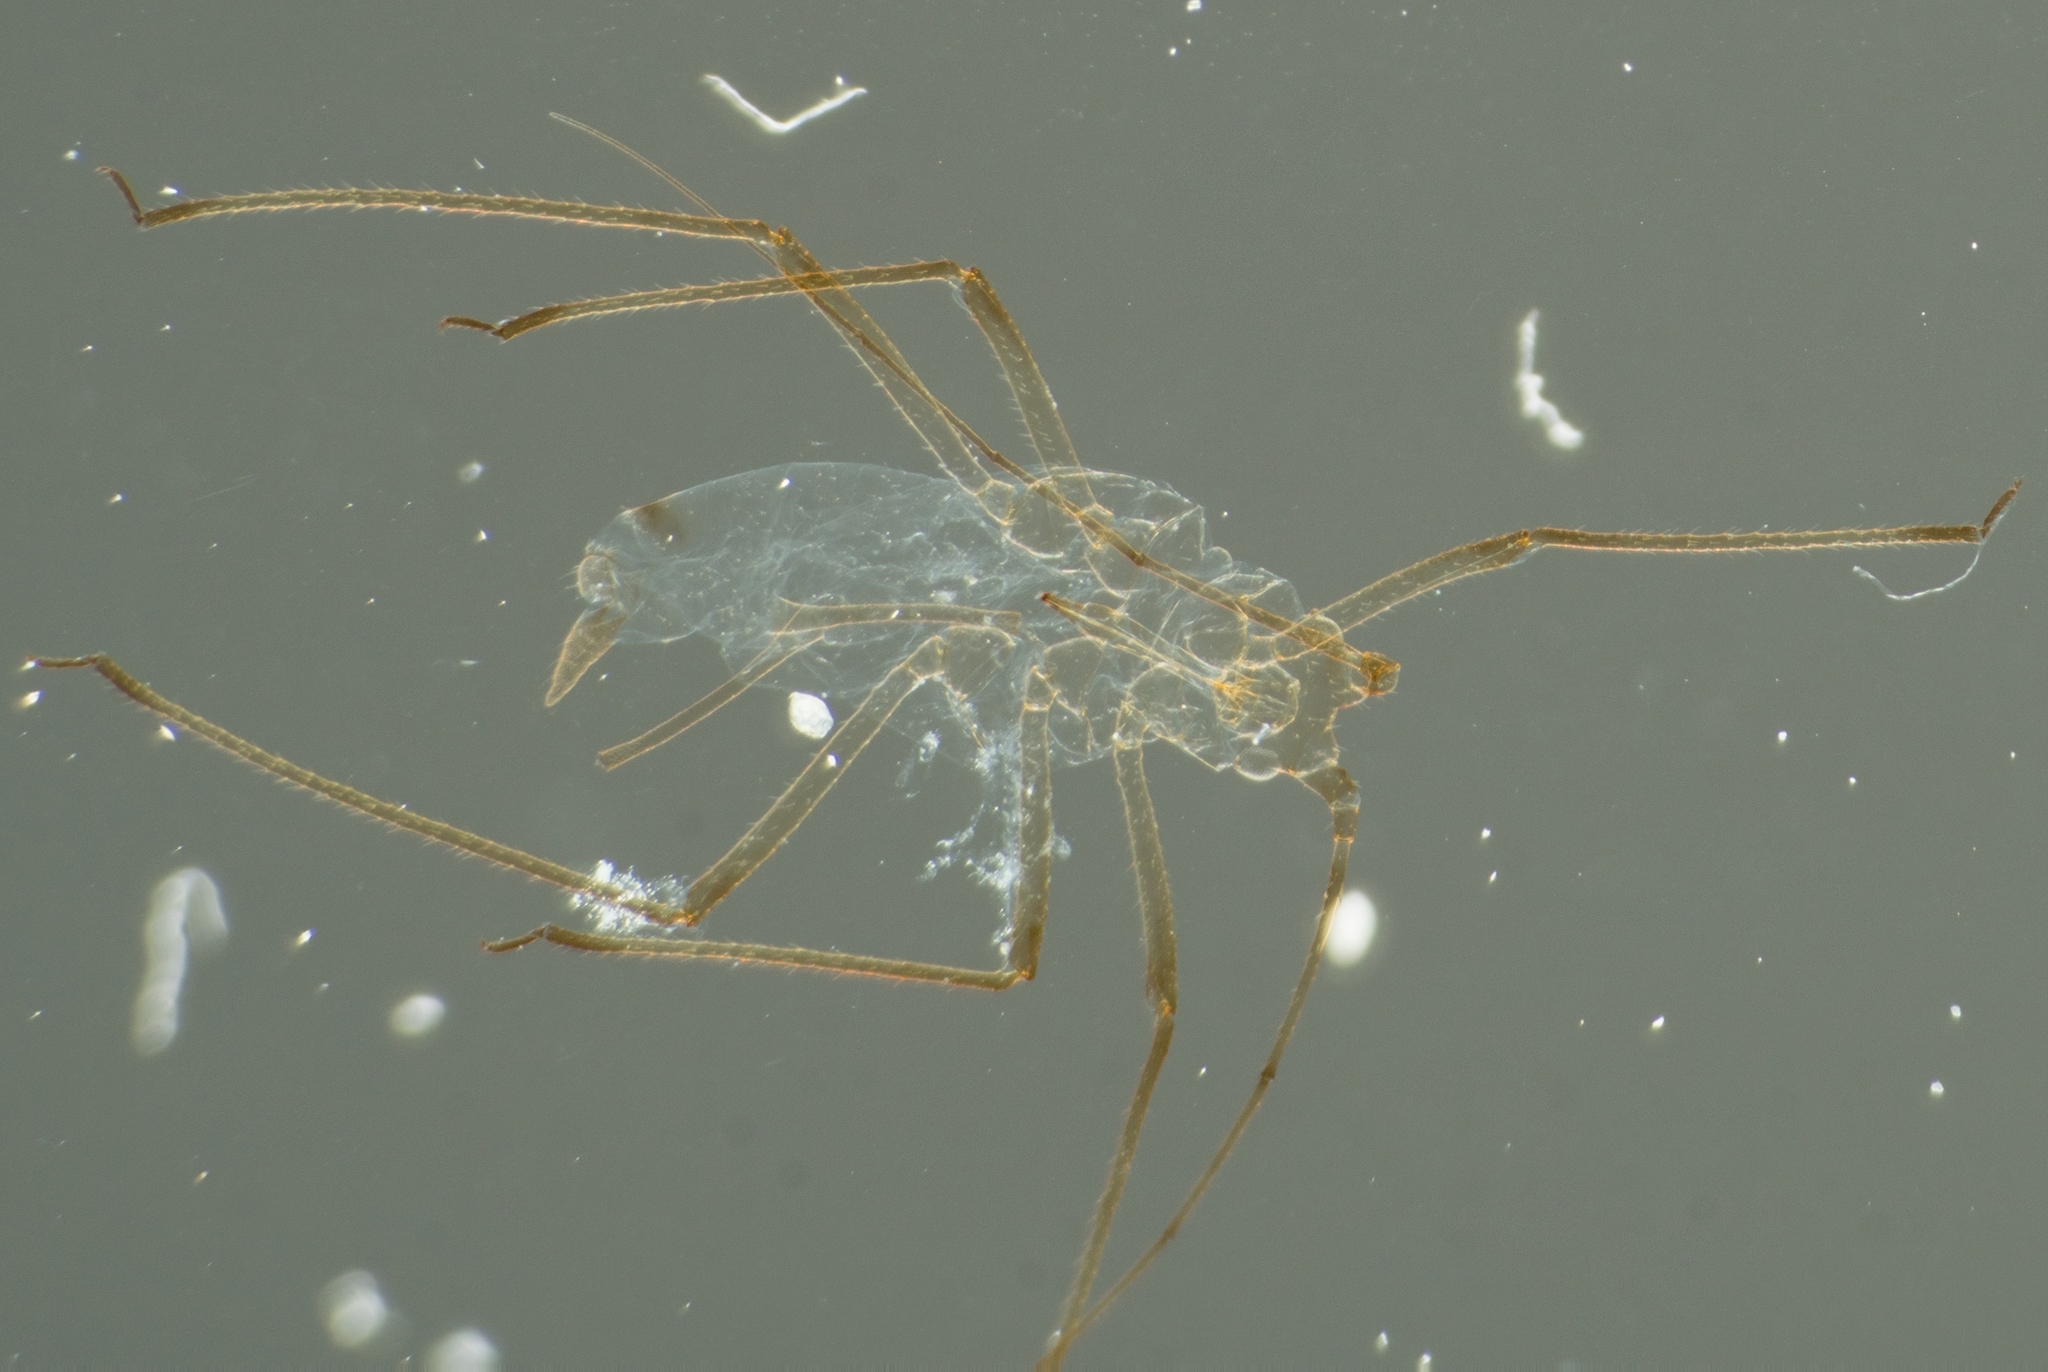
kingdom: Animalia
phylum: Arthropoda
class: Insecta
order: Hemiptera
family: Aphididae
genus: Macrosiphum
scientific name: Macrosiphum euphorbiae
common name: Potato aphid
